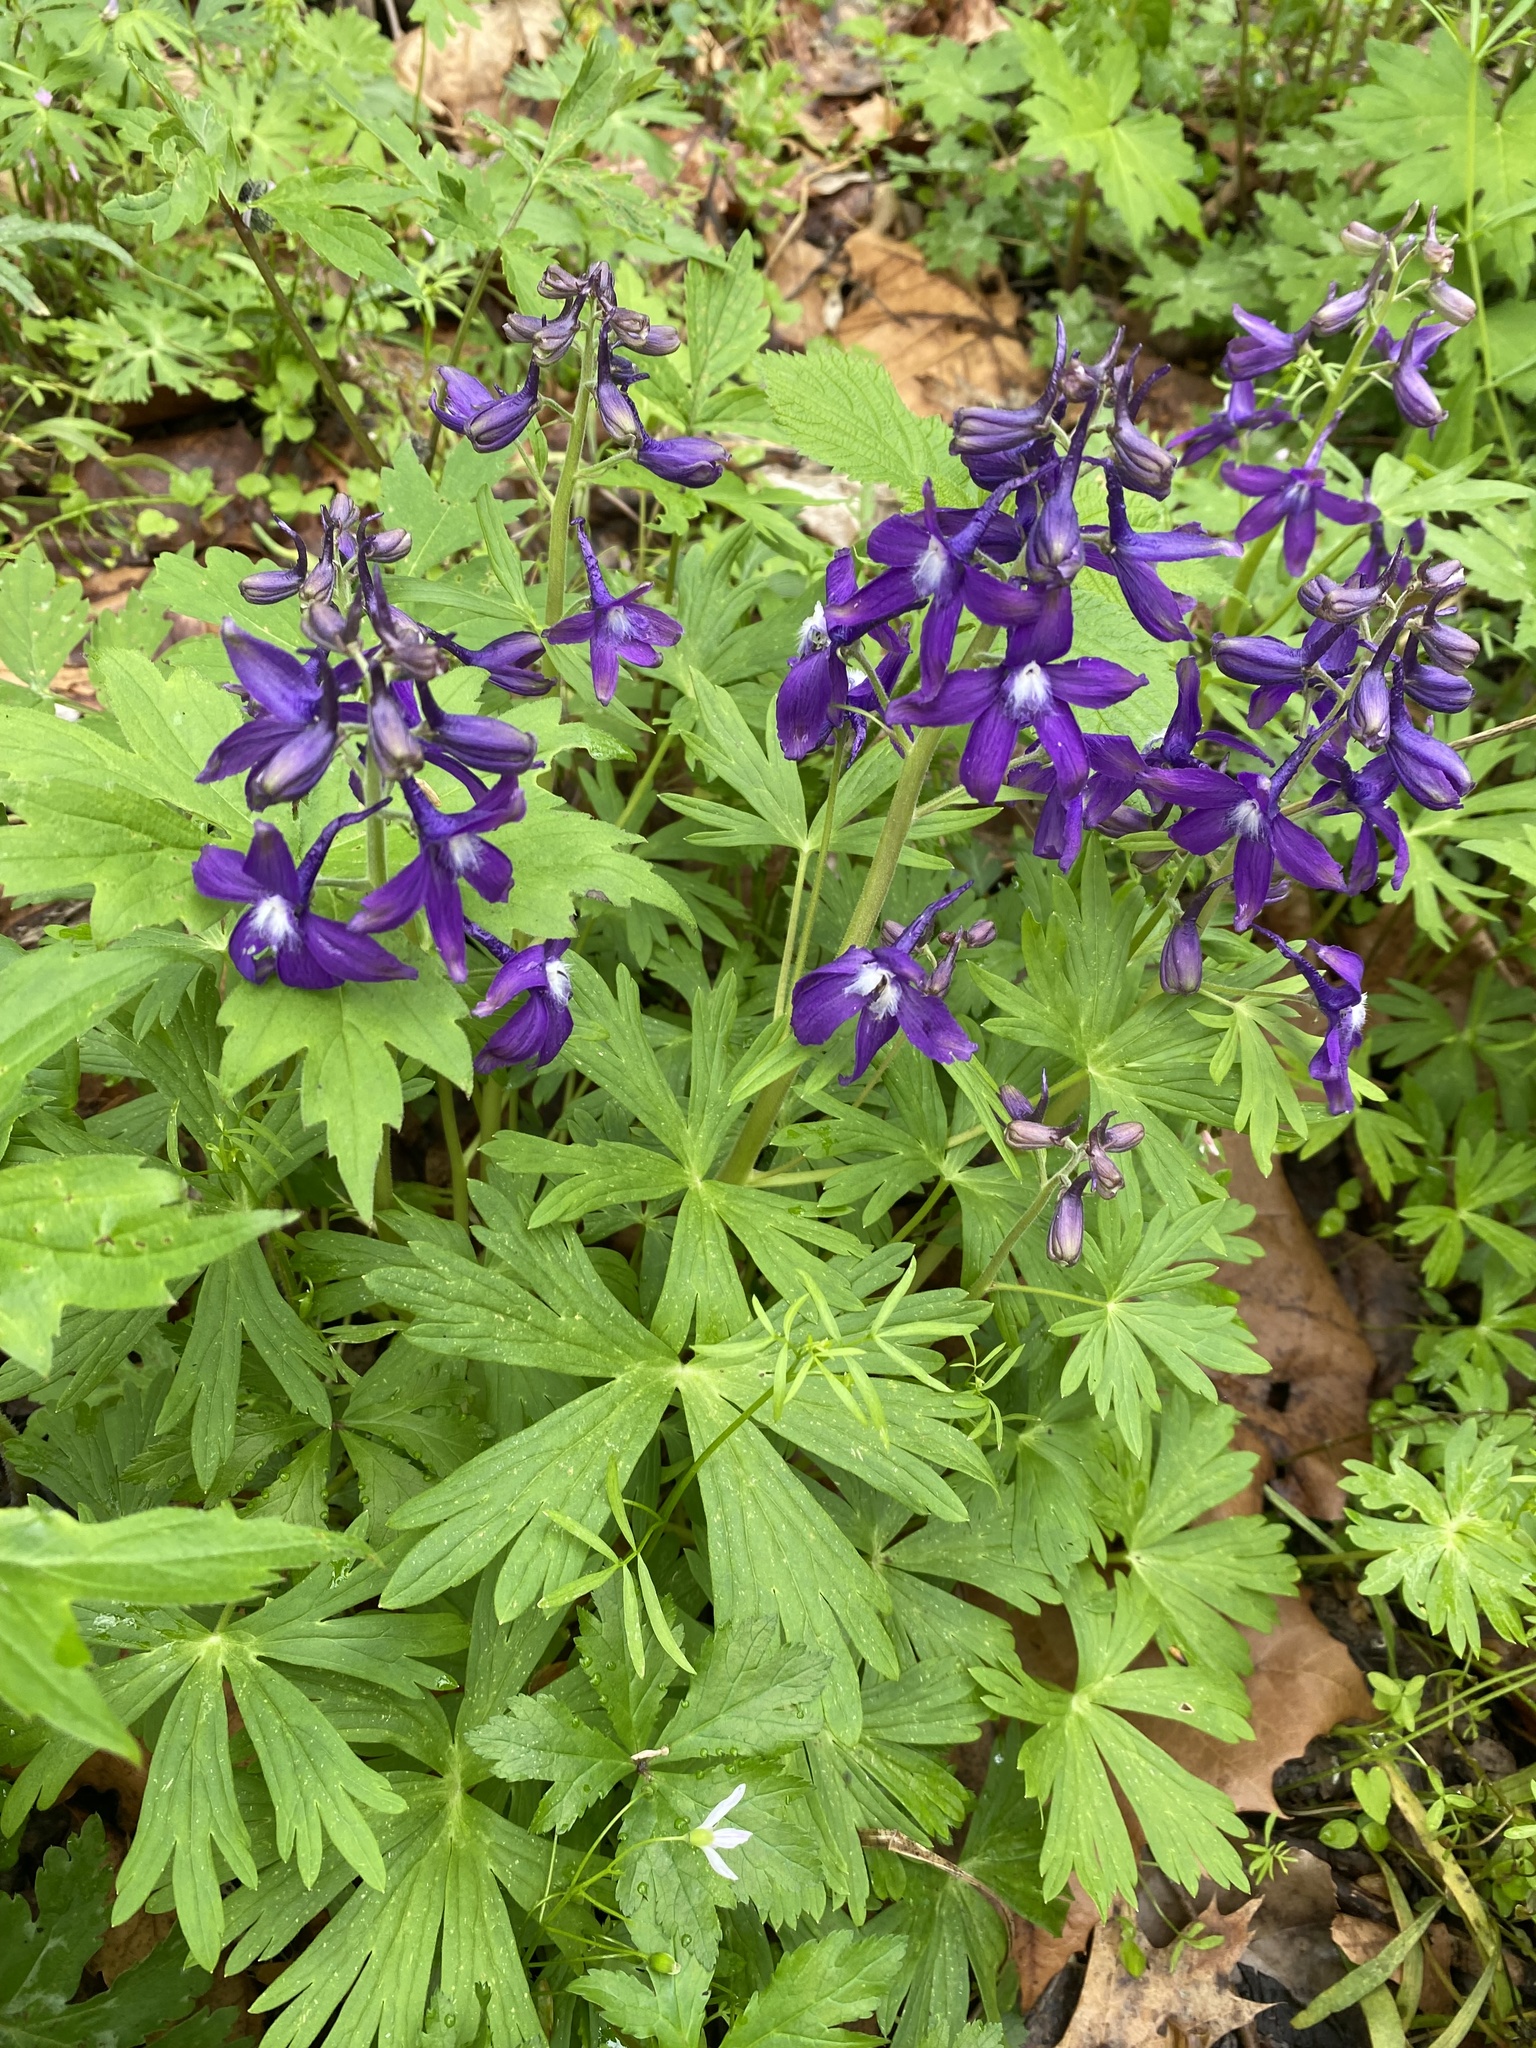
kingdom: Plantae
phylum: Tracheophyta
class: Magnoliopsida
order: Ranunculales
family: Ranunculaceae
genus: Delphinium
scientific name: Delphinium tricorne
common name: Dwarf larkspur
